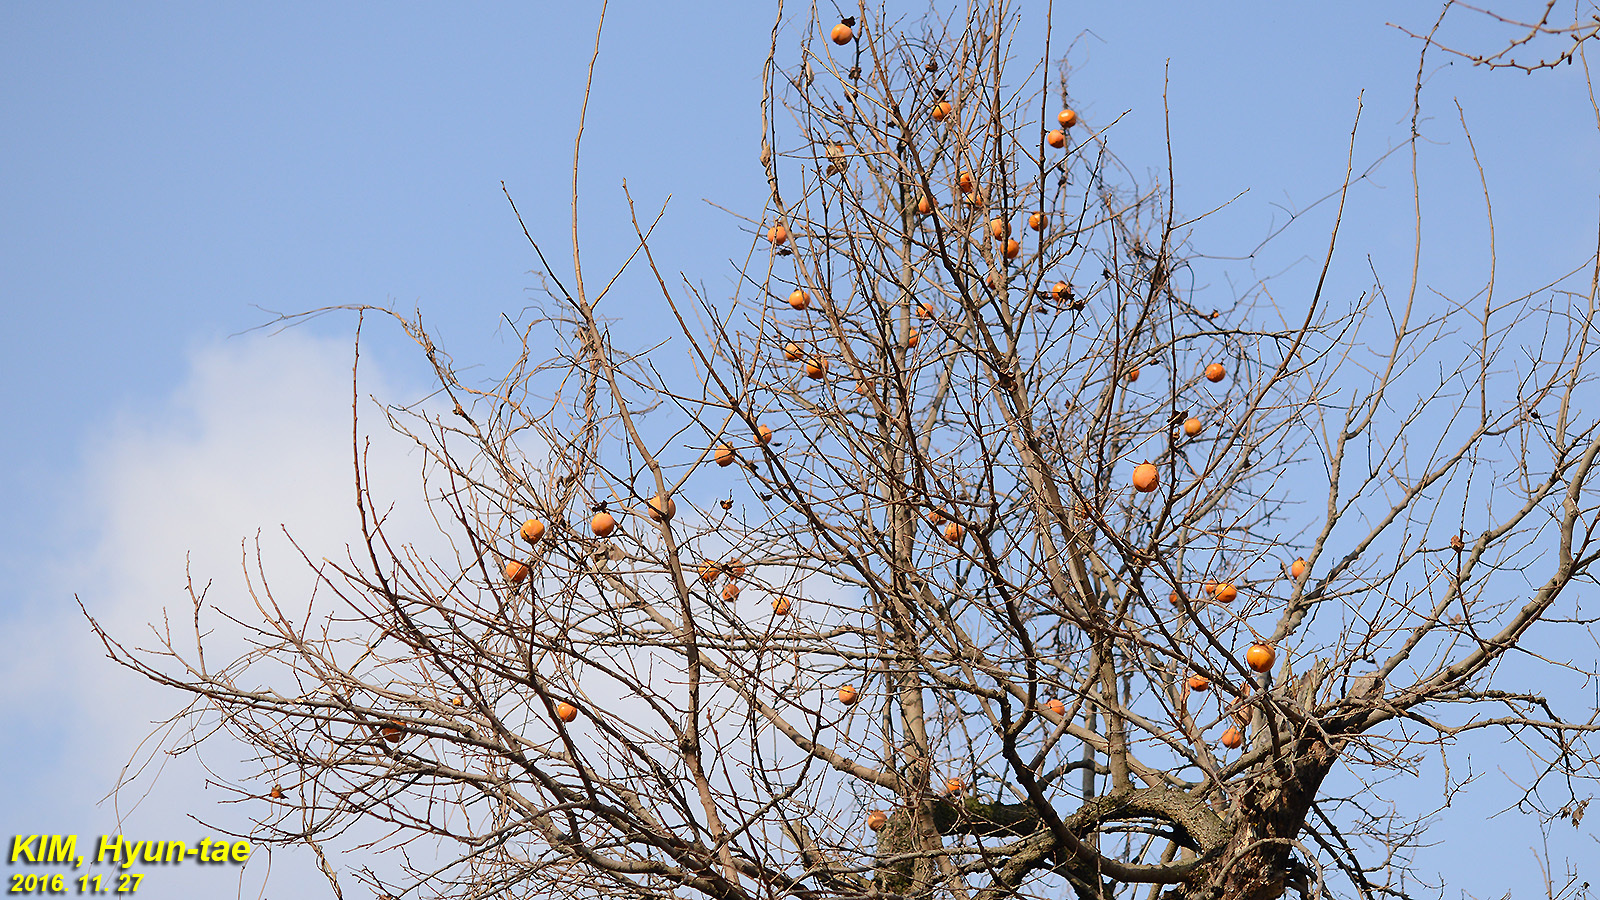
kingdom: Plantae
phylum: Tracheophyta
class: Magnoliopsida
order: Ericales
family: Ebenaceae
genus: Diospyros
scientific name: Diospyros kaki
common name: Persimmon
